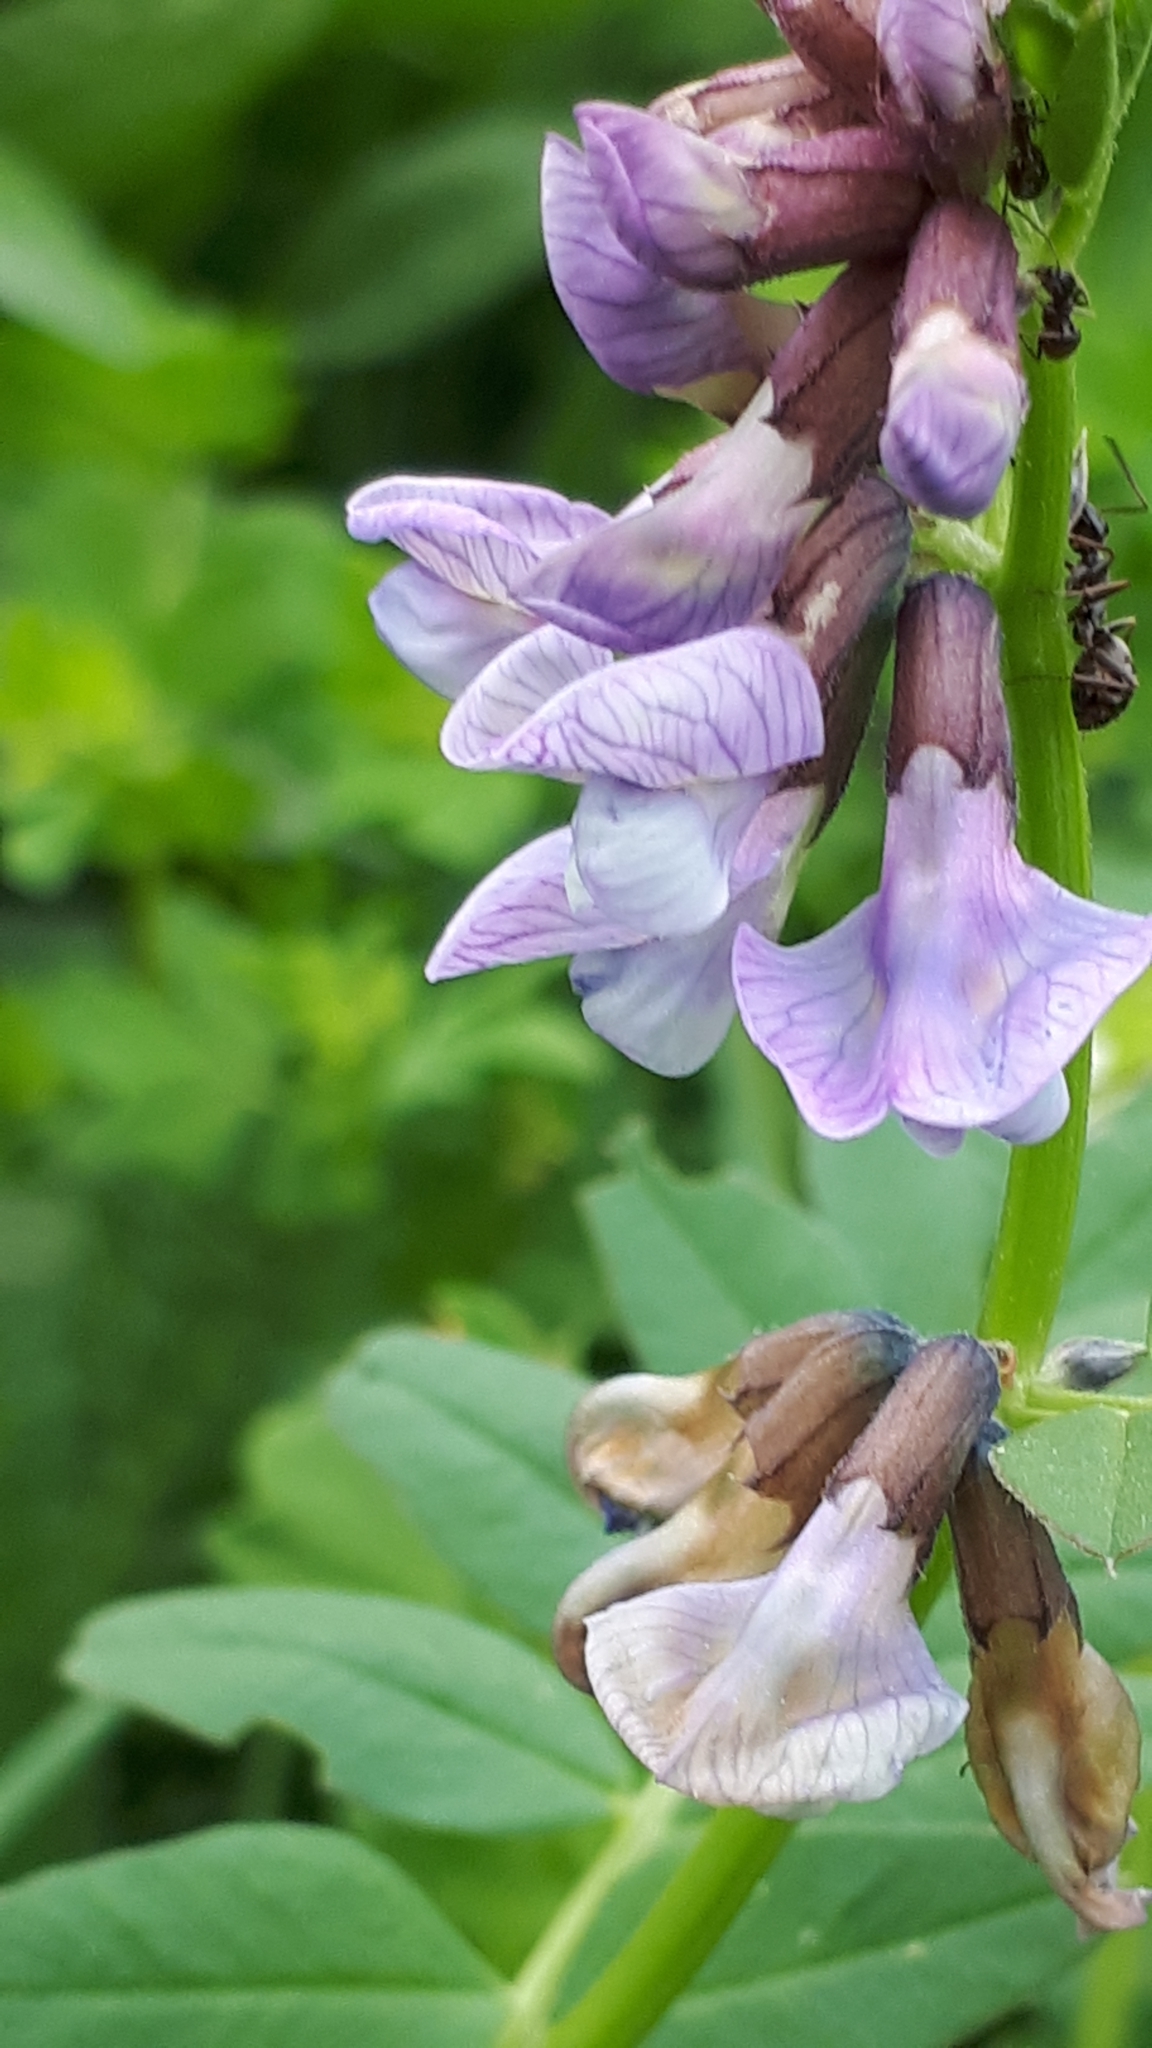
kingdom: Plantae
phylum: Tracheophyta
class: Magnoliopsida
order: Fabales
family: Fabaceae
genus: Vicia
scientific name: Vicia sepium
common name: Bush vetch
